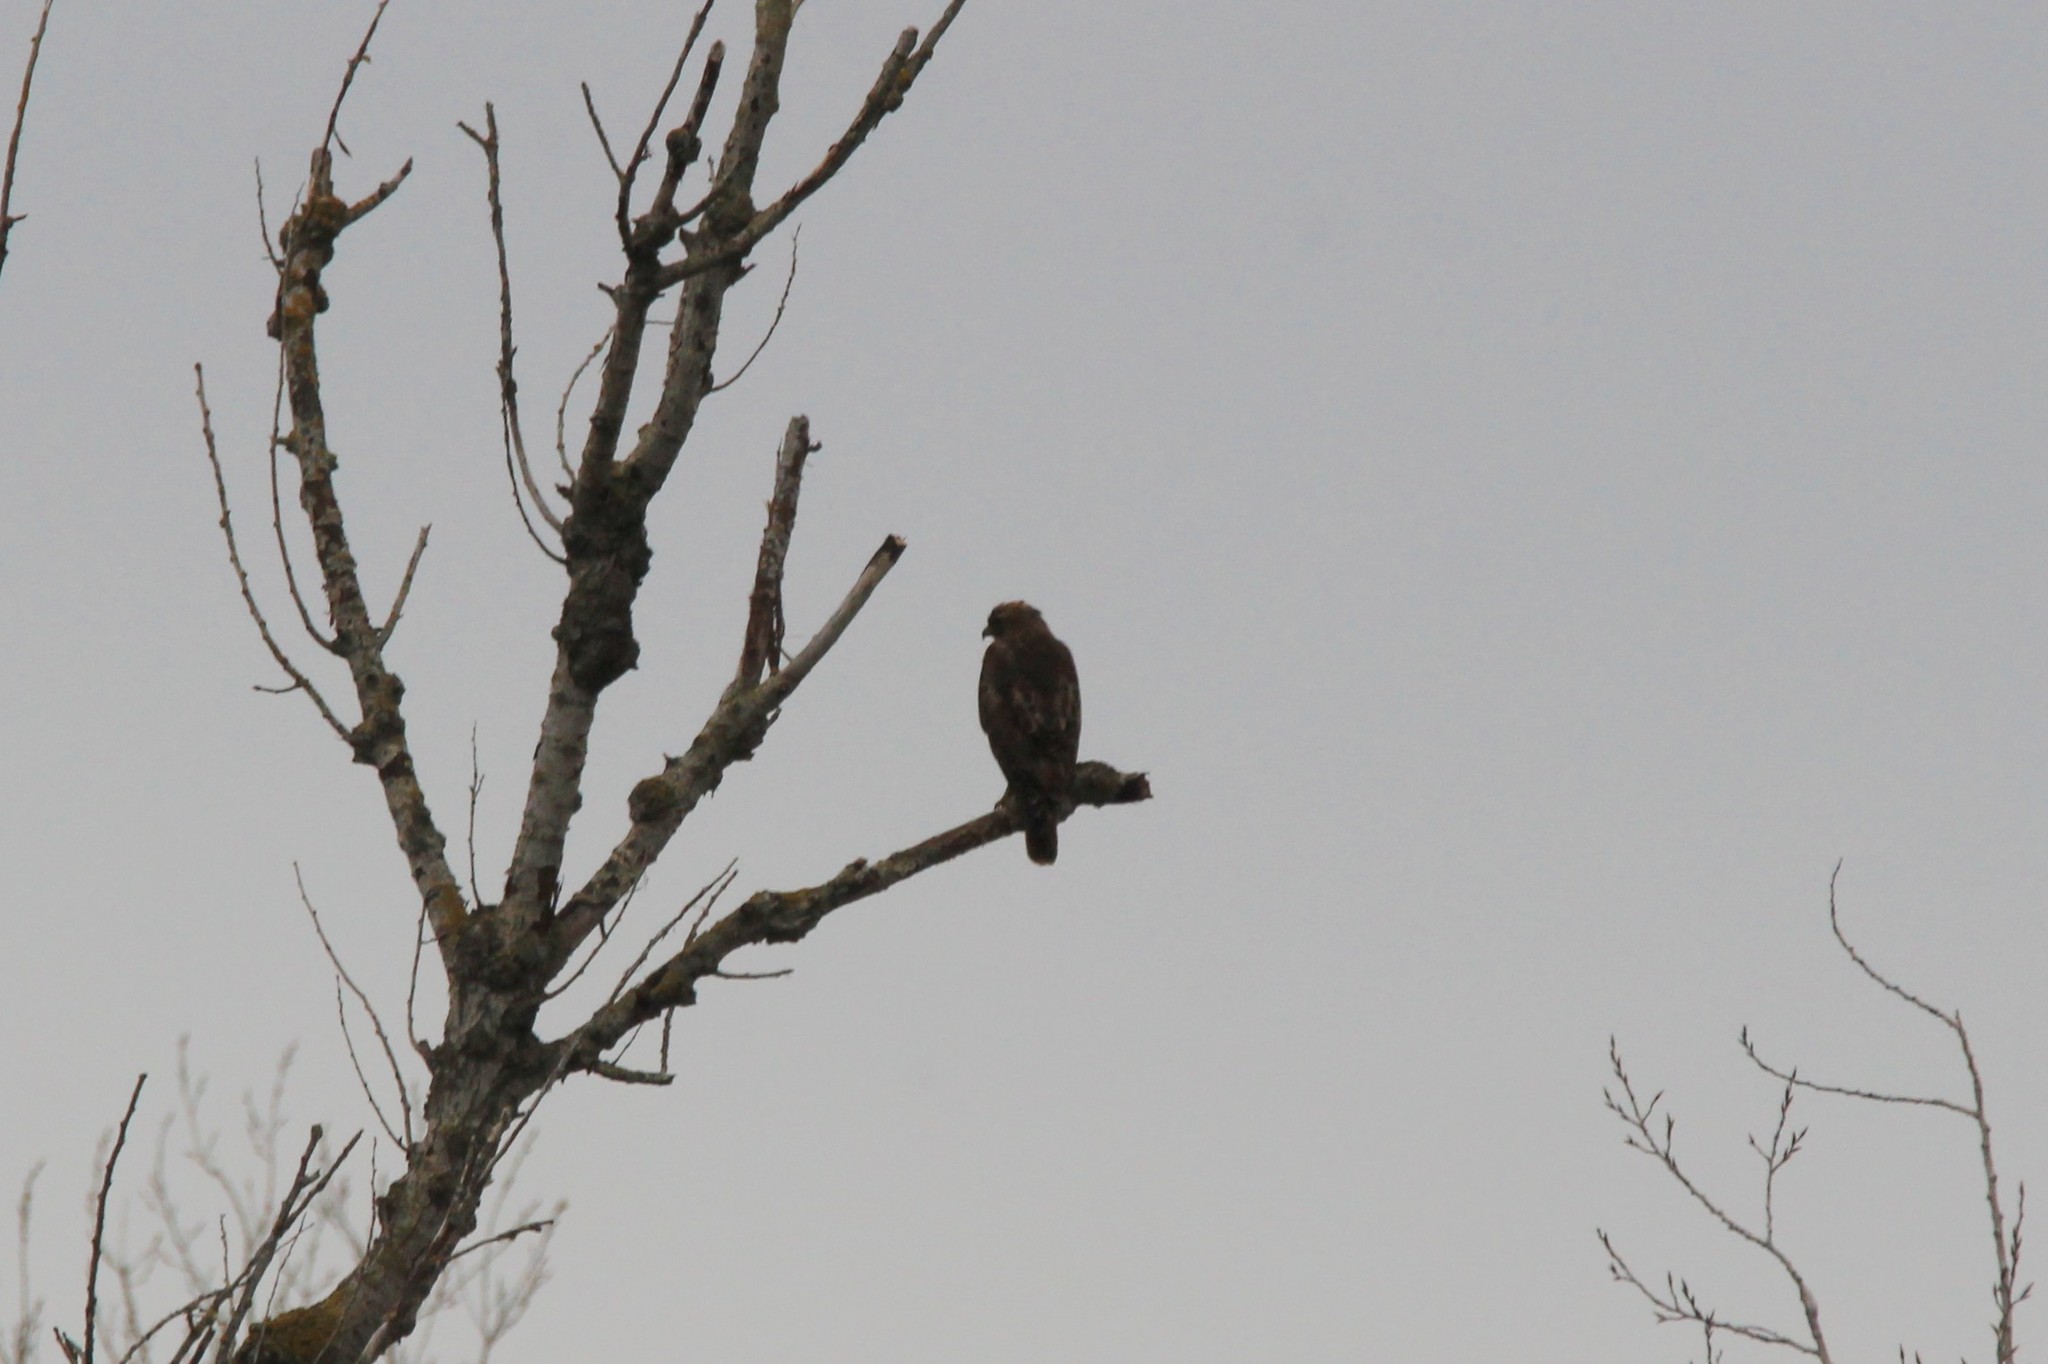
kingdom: Animalia
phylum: Chordata
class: Aves
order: Accipitriformes
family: Accipitridae
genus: Buteo
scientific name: Buteo jamaicensis
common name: Red-tailed hawk
